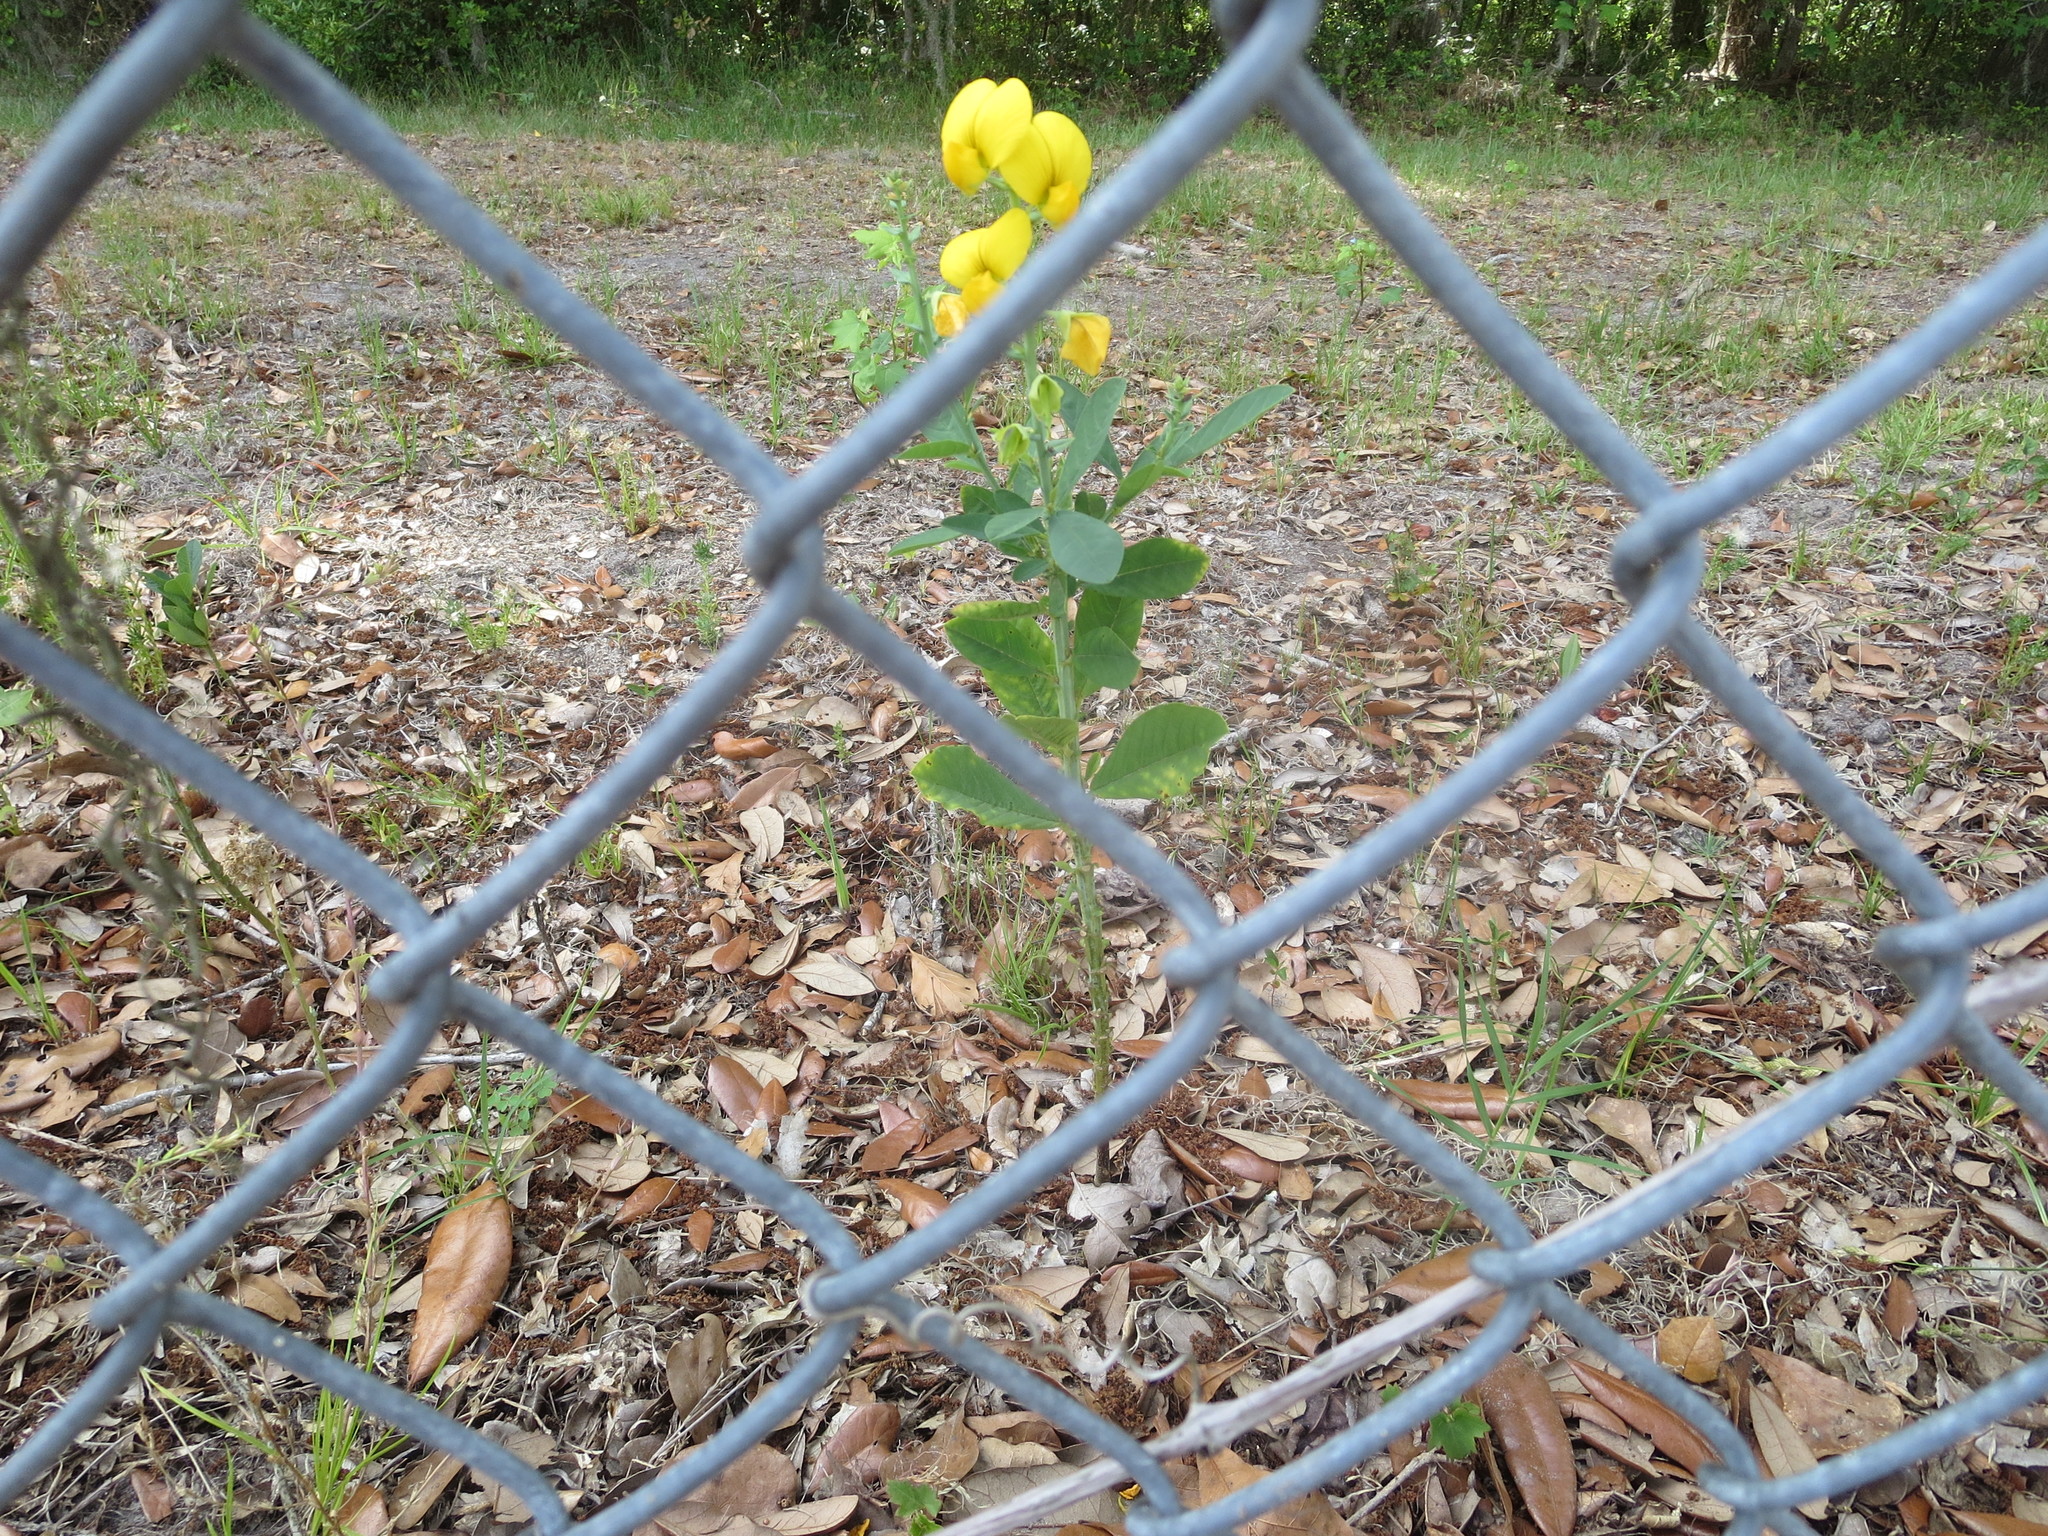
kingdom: Plantae
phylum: Tracheophyta
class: Magnoliopsida
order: Fabales
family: Fabaceae
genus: Crotalaria
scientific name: Crotalaria spectabilis
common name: Showy rattlebox
